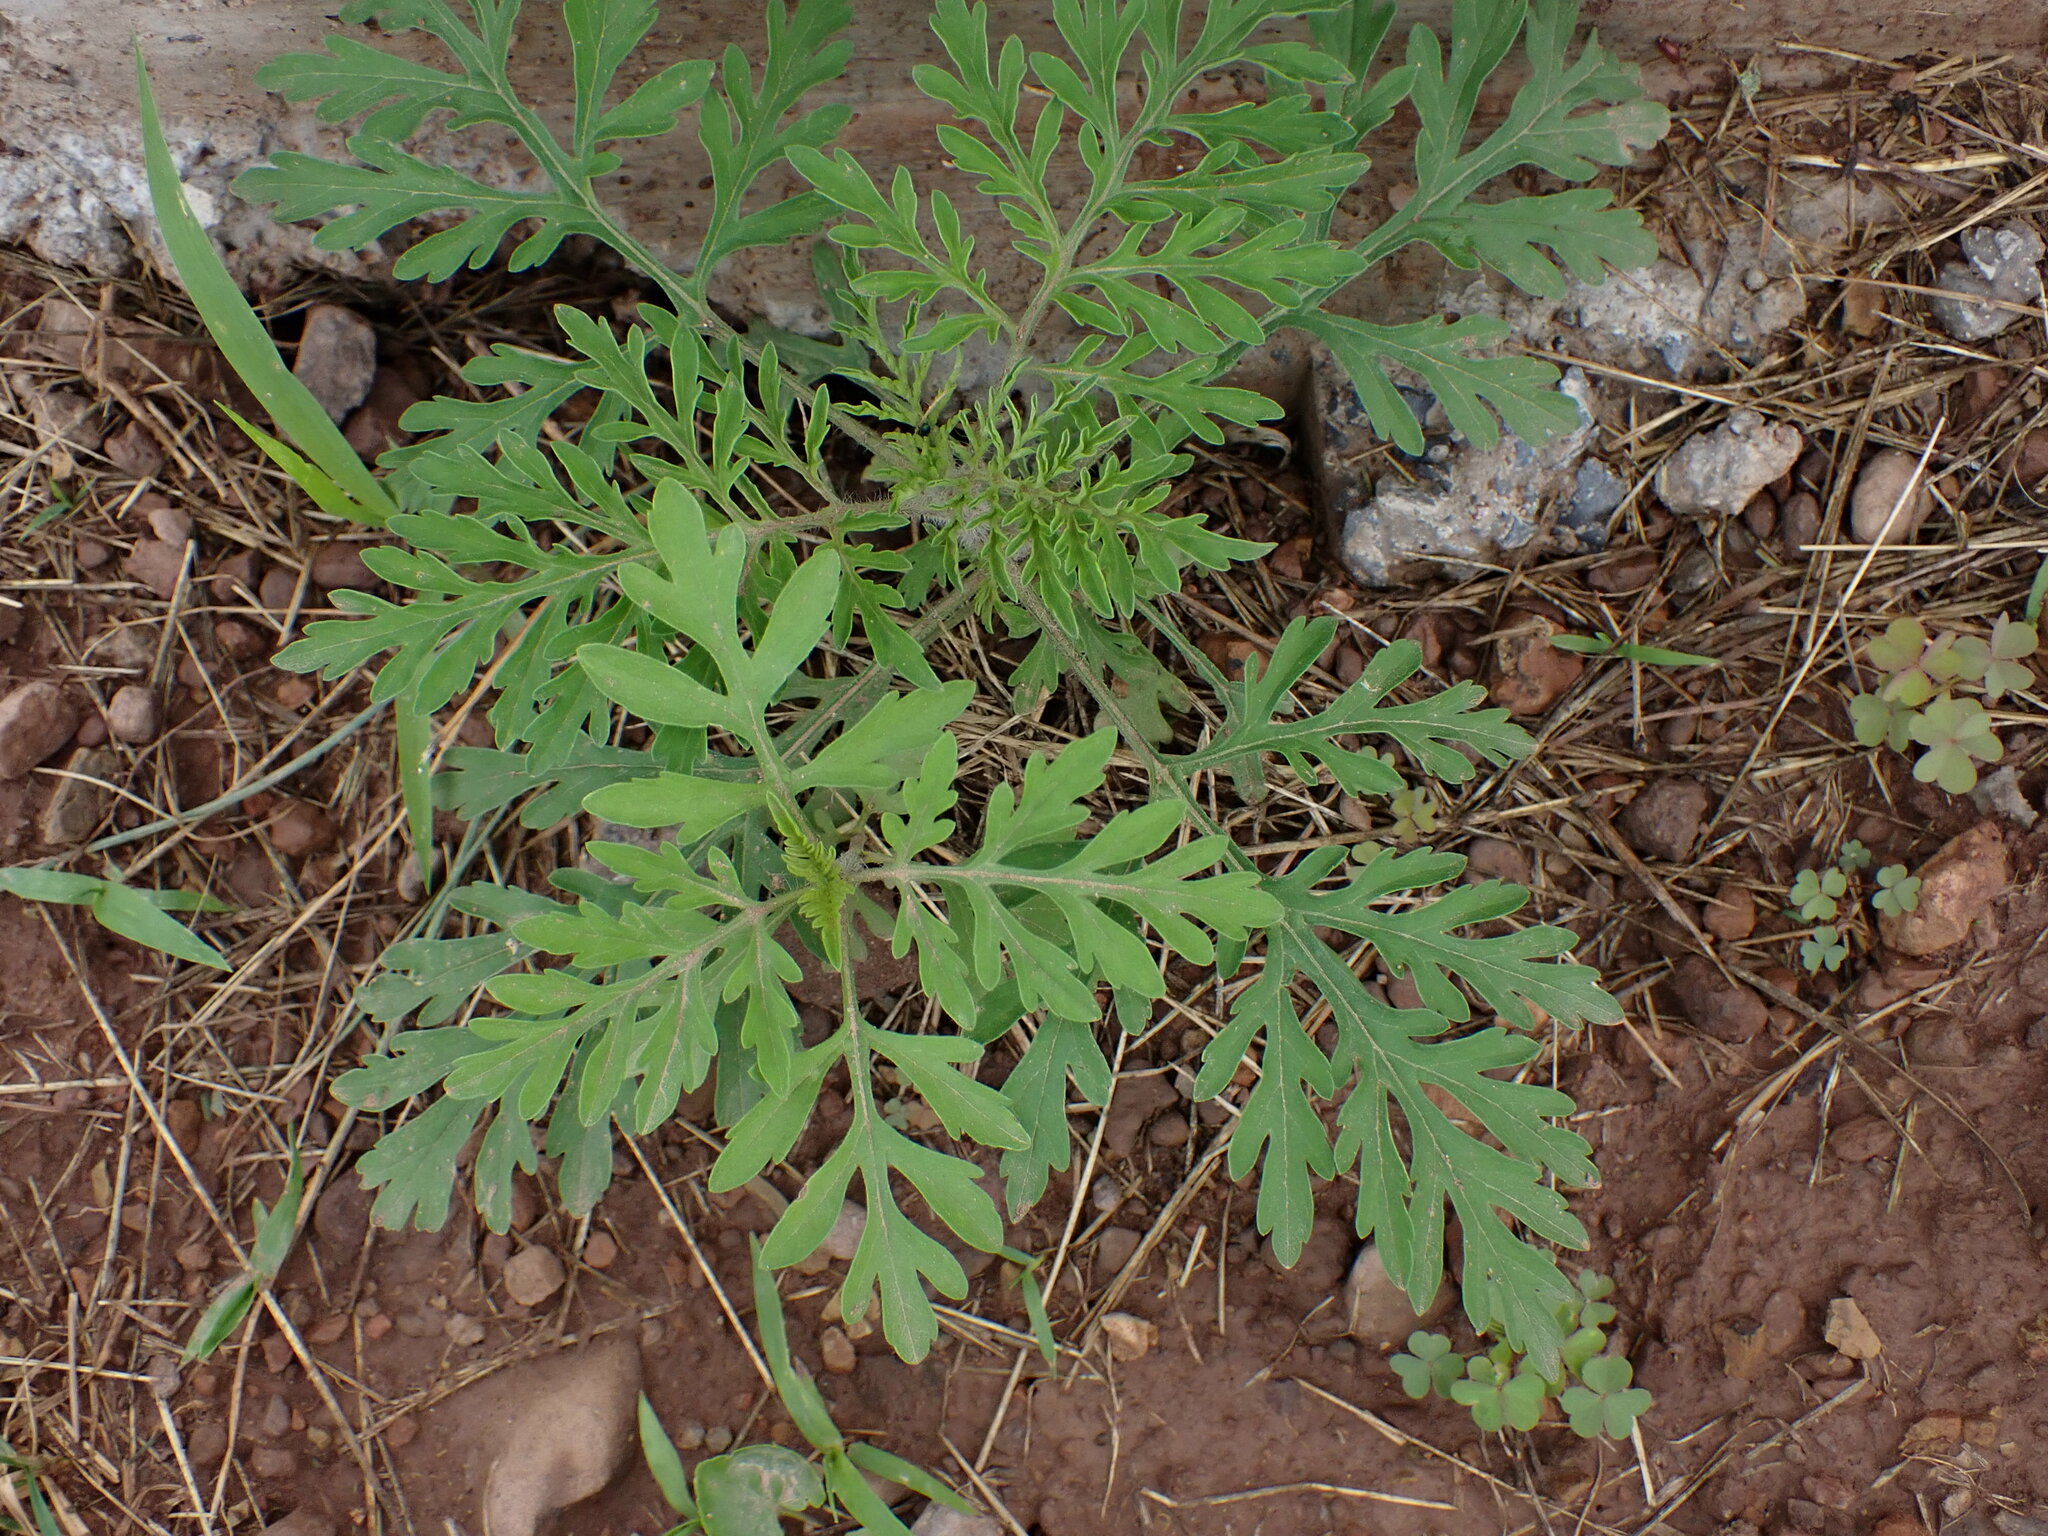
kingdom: Plantae
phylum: Tracheophyta
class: Magnoliopsida
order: Asterales
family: Asteraceae
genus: Ambrosia
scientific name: Ambrosia artemisiifolia
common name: Annual ragweed
